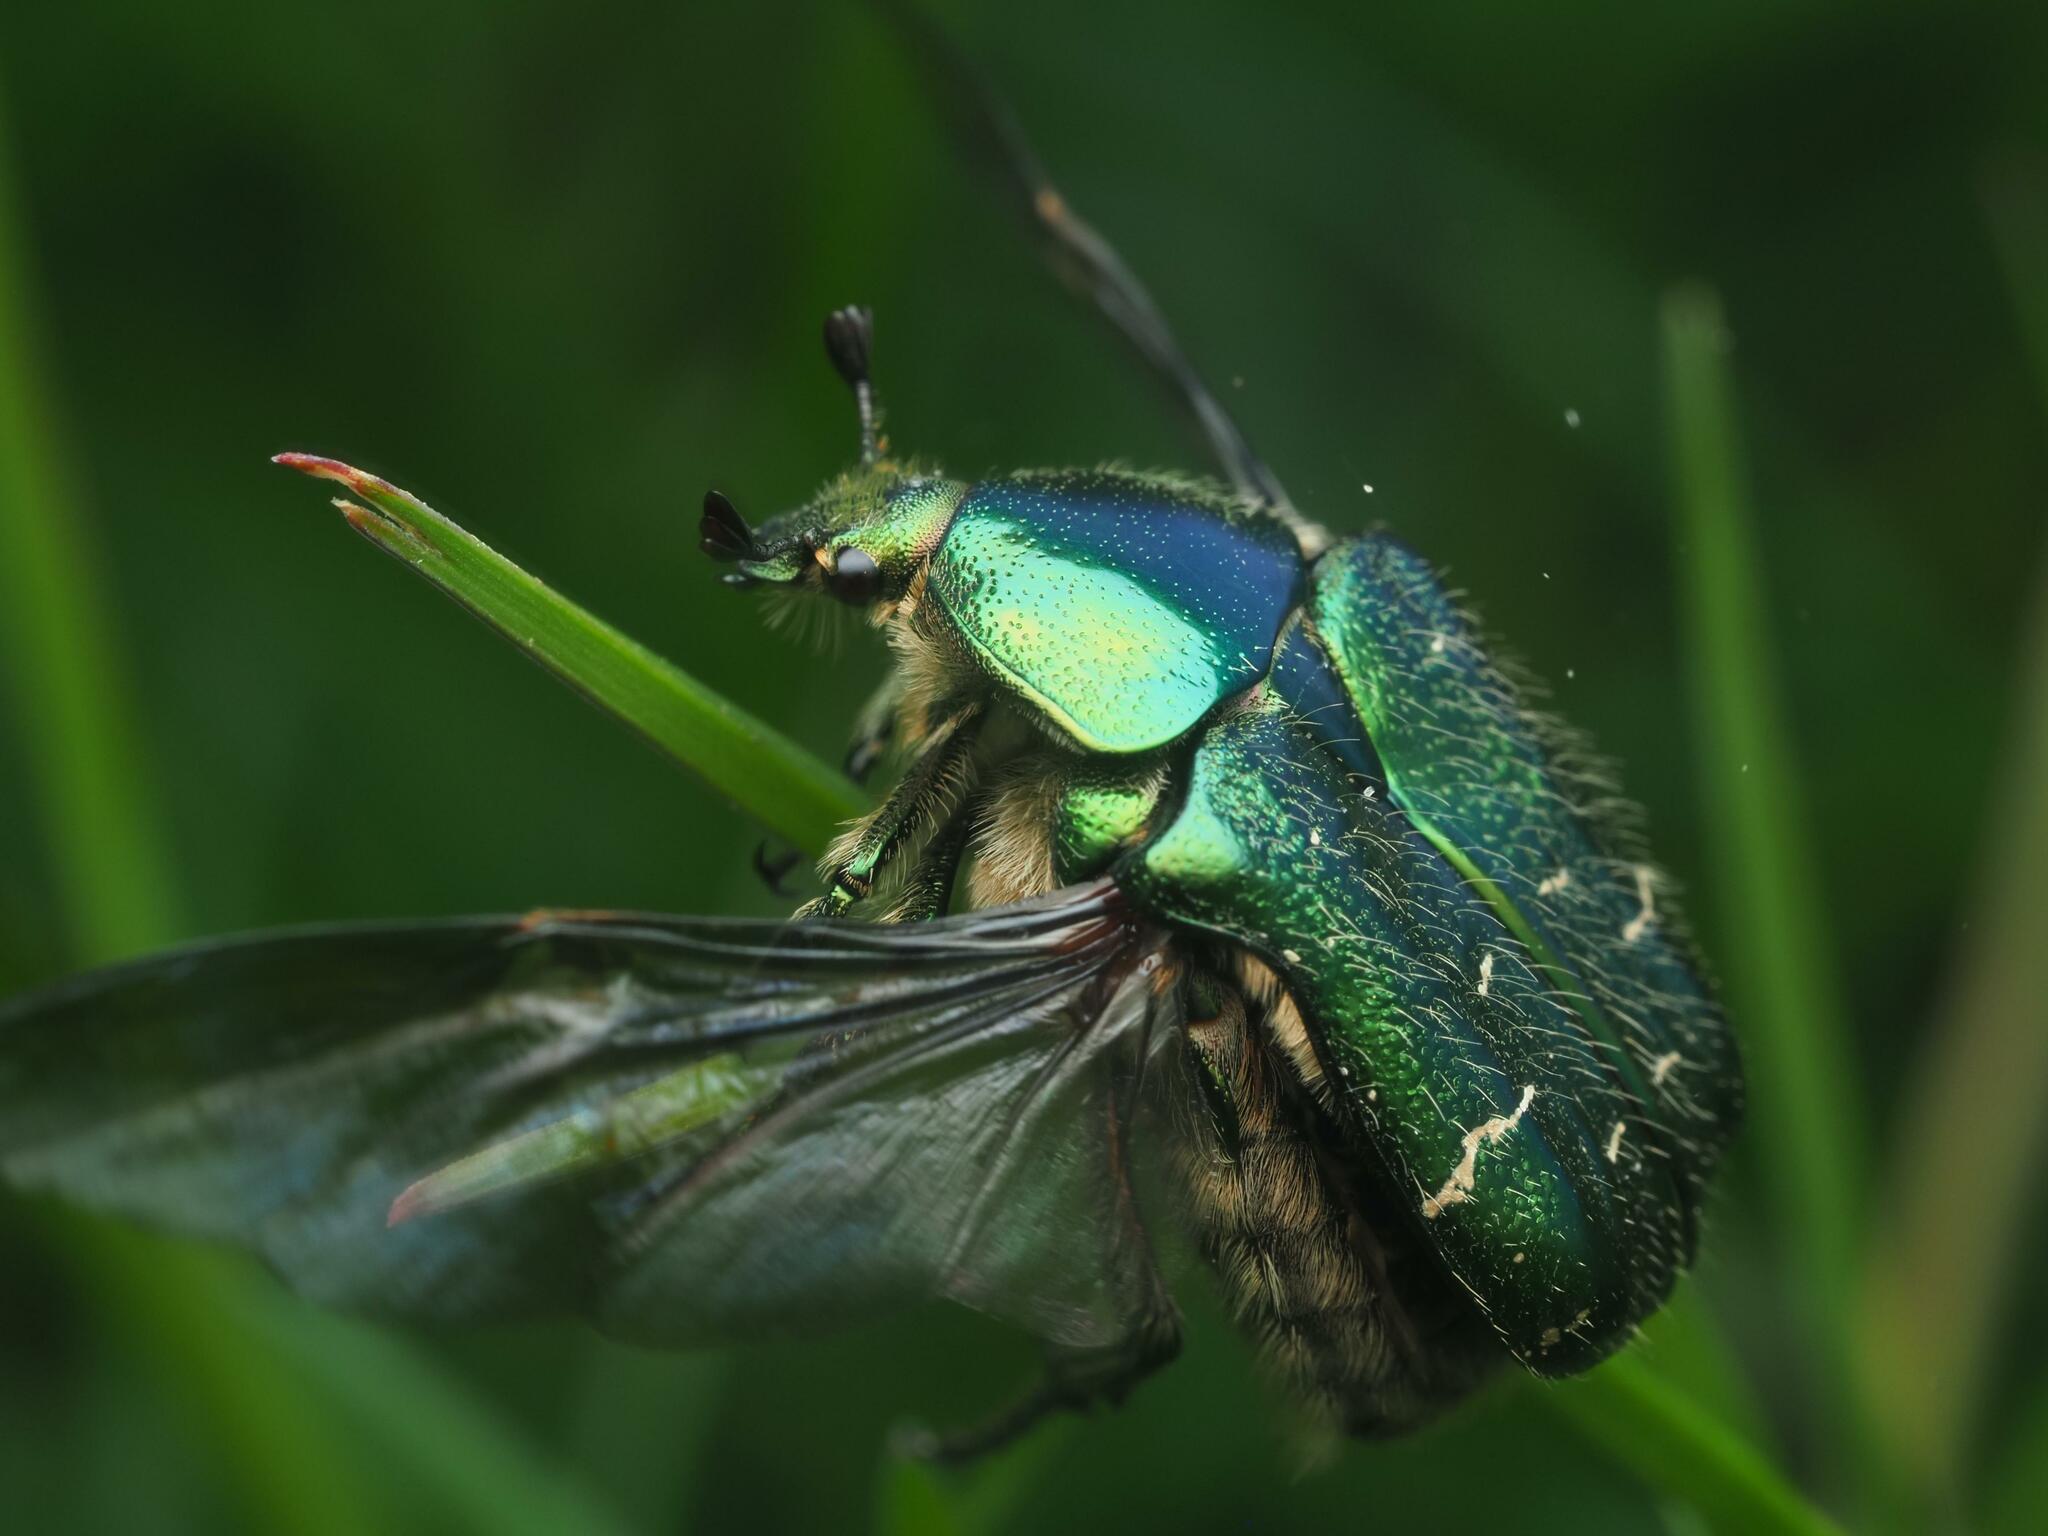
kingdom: Animalia
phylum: Arthropoda
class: Insecta
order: Coleoptera
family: Scarabaeidae
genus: Cetonia
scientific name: Cetonia aurata
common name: Rose chafer
